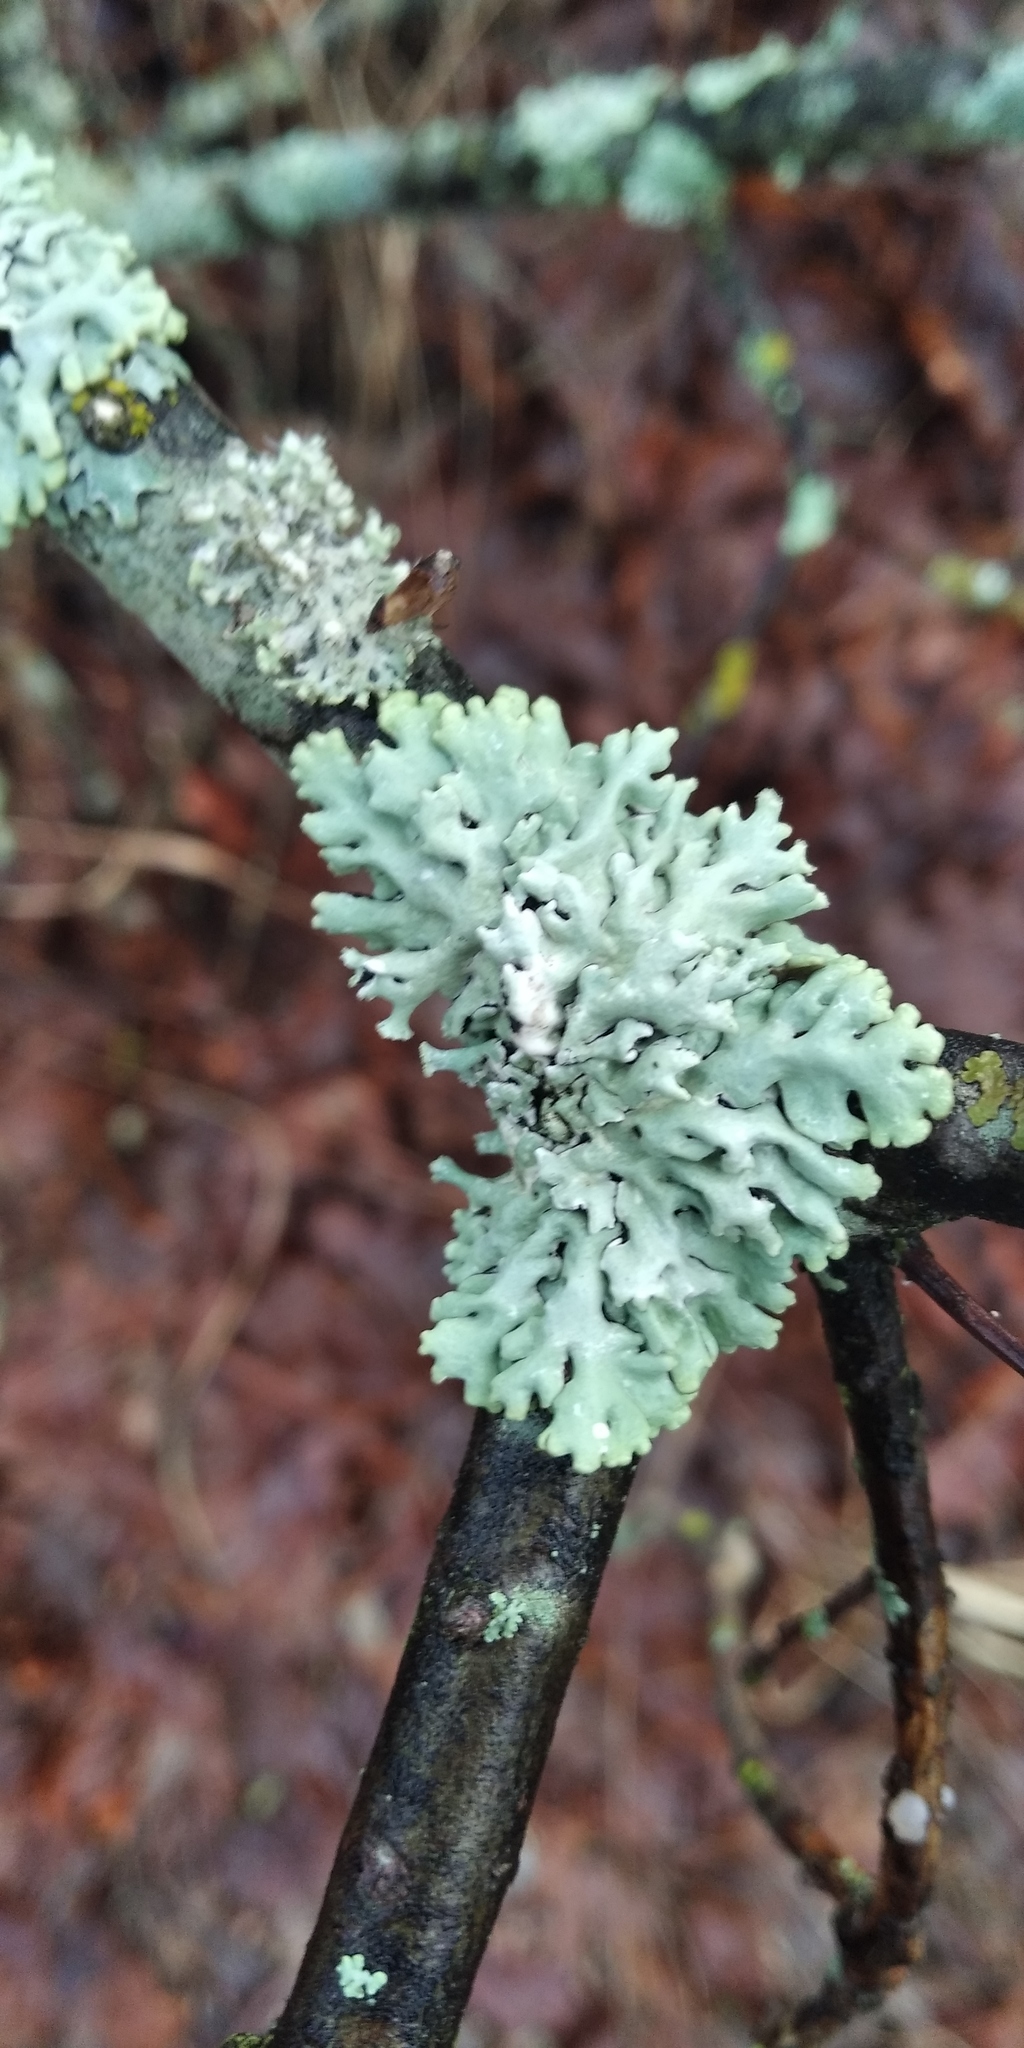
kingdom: Fungi
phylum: Ascomycota
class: Lecanoromycetes
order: Lecanorales
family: Parmeliaceae
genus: Hypogymnia
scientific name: Hypogymnia physodes
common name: Dark crottle
